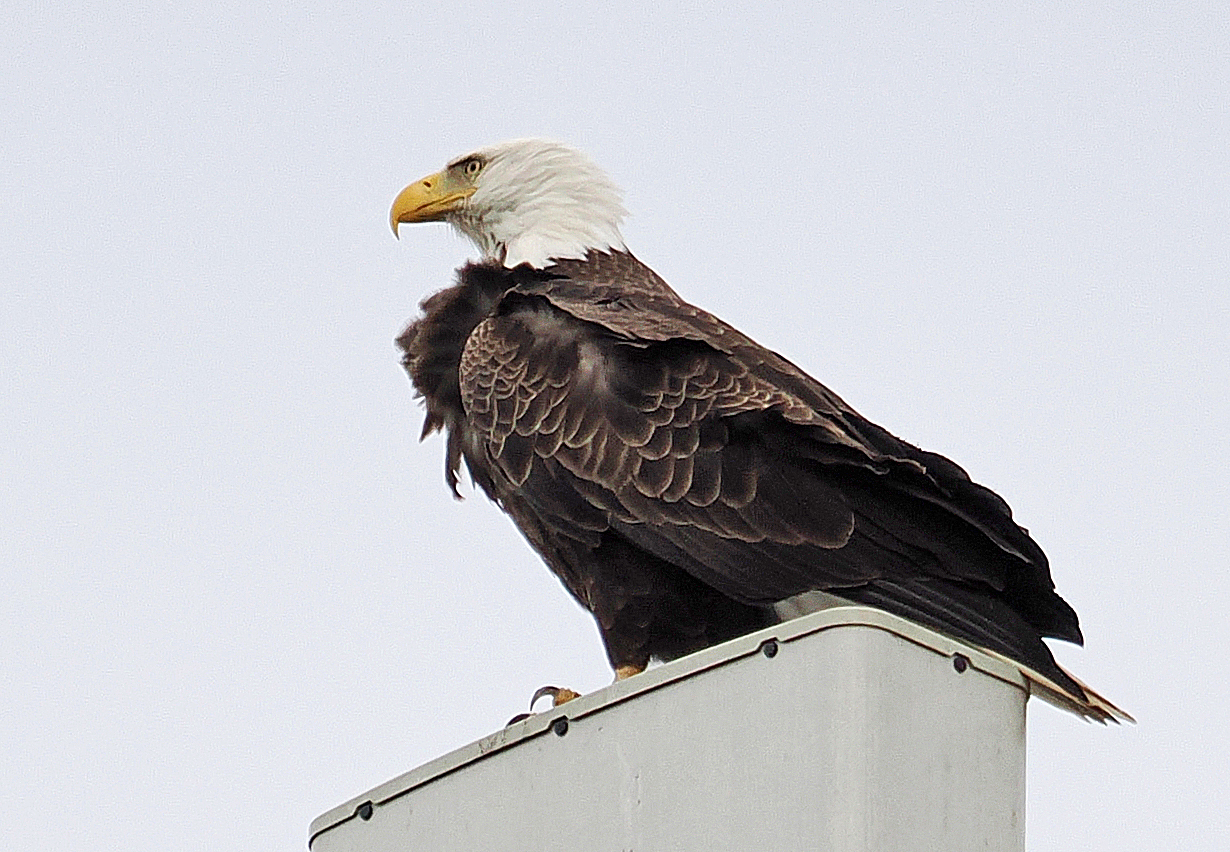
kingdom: Animalia
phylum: Chordata
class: Aves
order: Accipitriformes
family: Accipitridae
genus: Haliaeetus
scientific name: Haliaeetus leucocephalus
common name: Bald eagle
